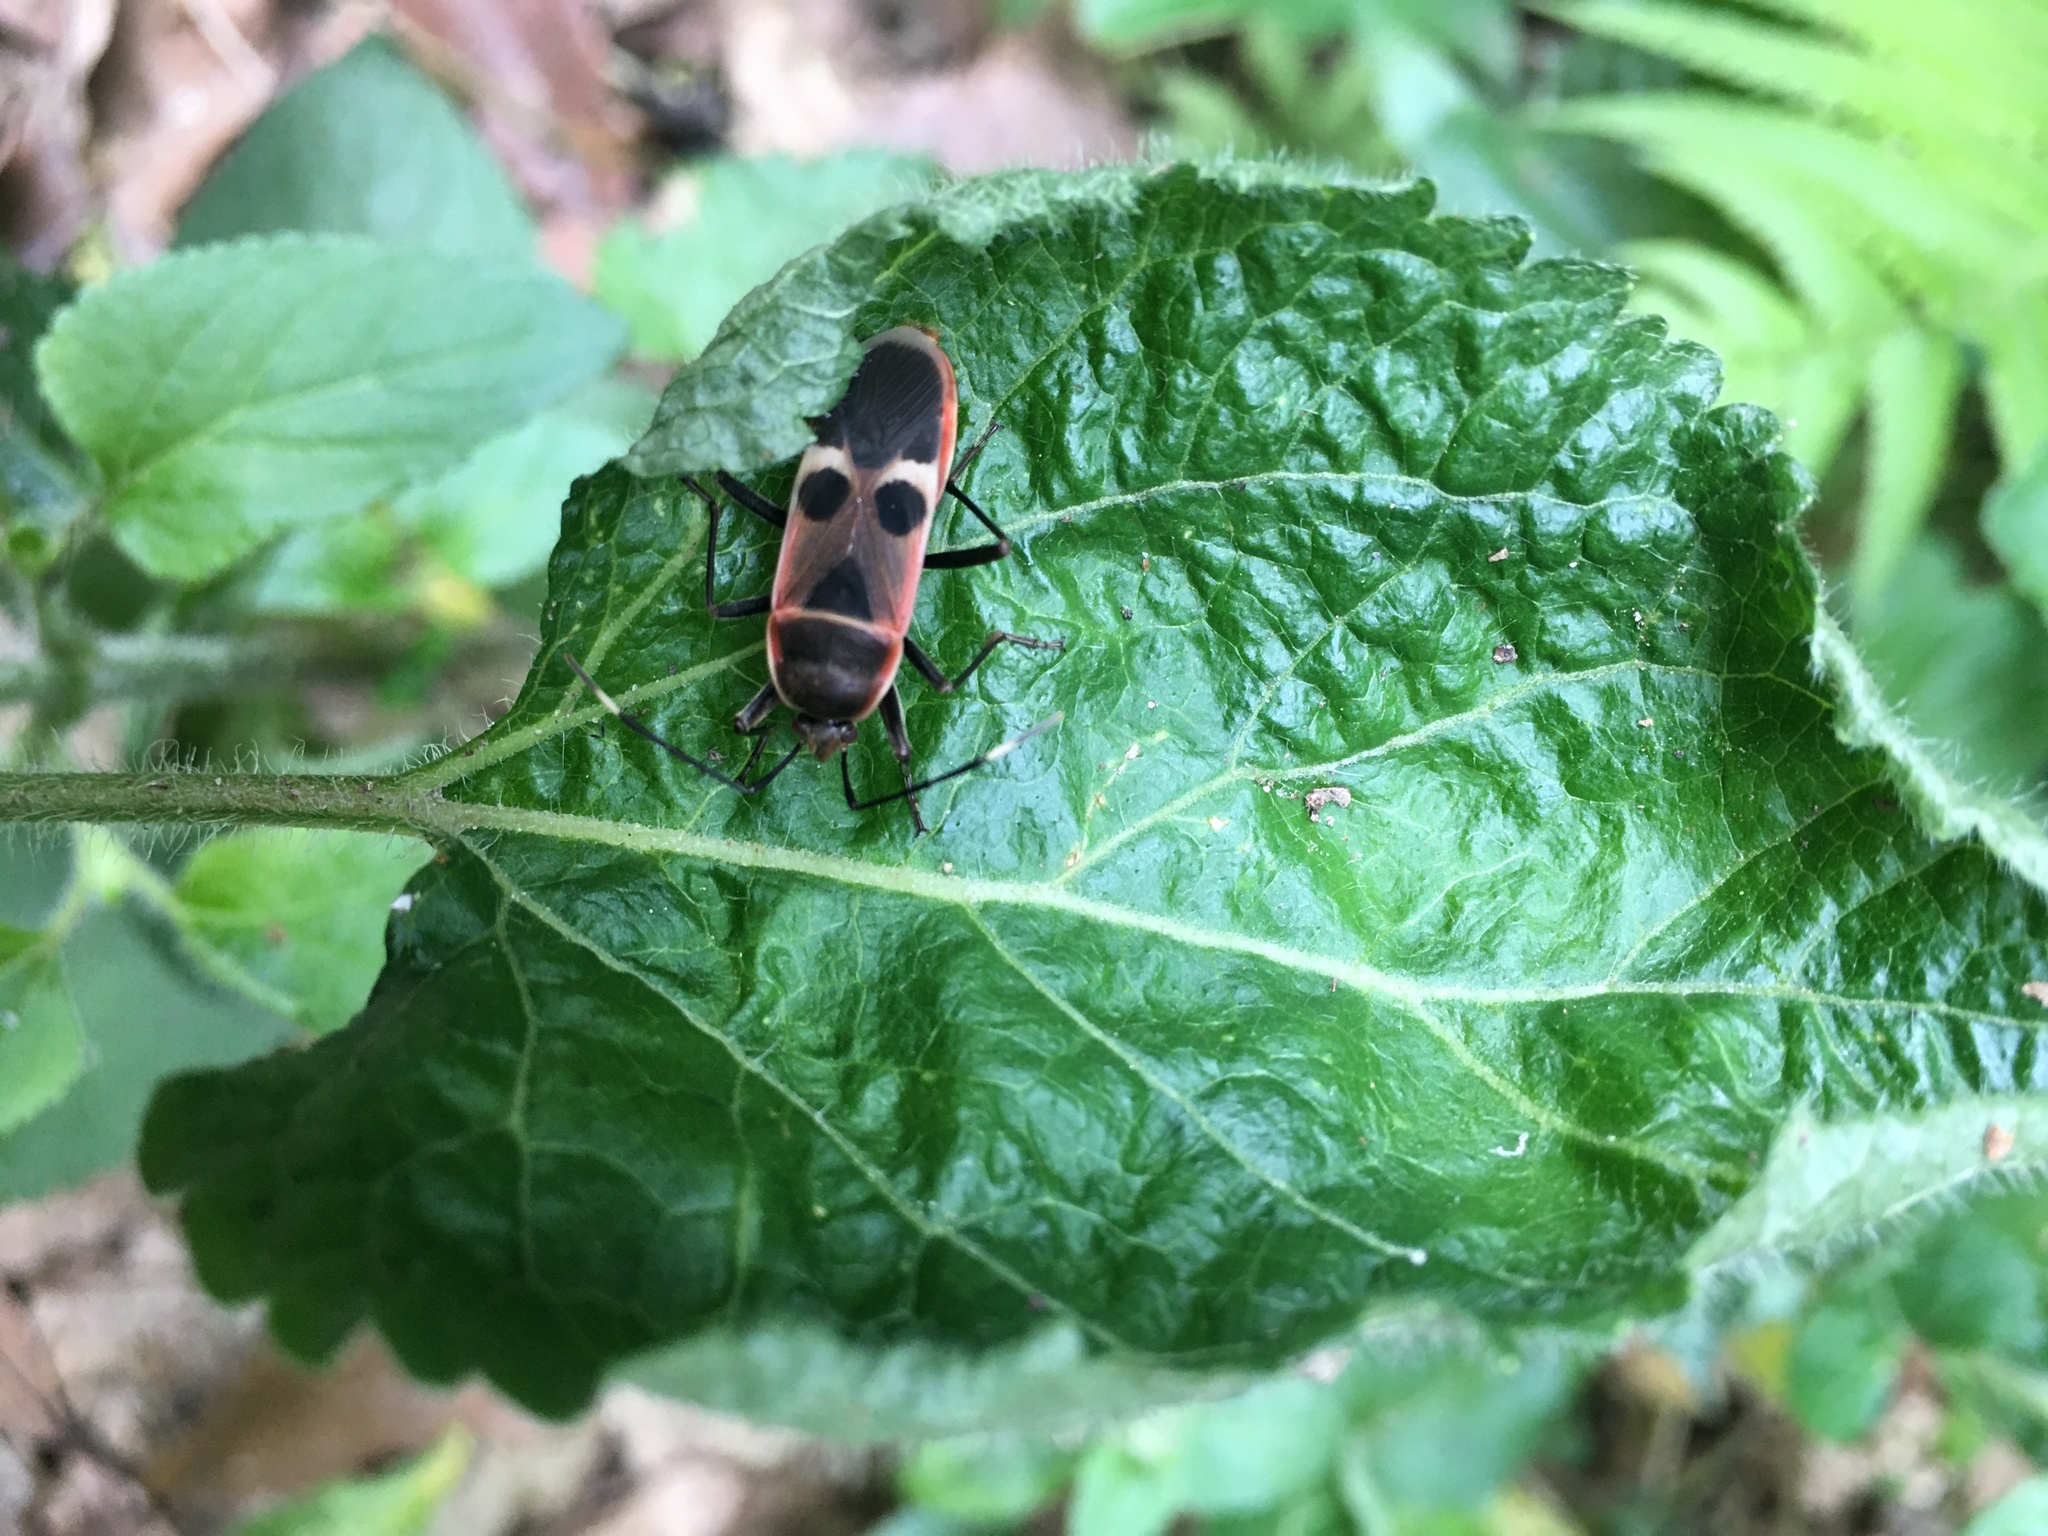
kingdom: Animalia
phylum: Arthropoda
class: Insecta
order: Hemiptera
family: Largidae
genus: Physopelta
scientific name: Physopelta gutta
